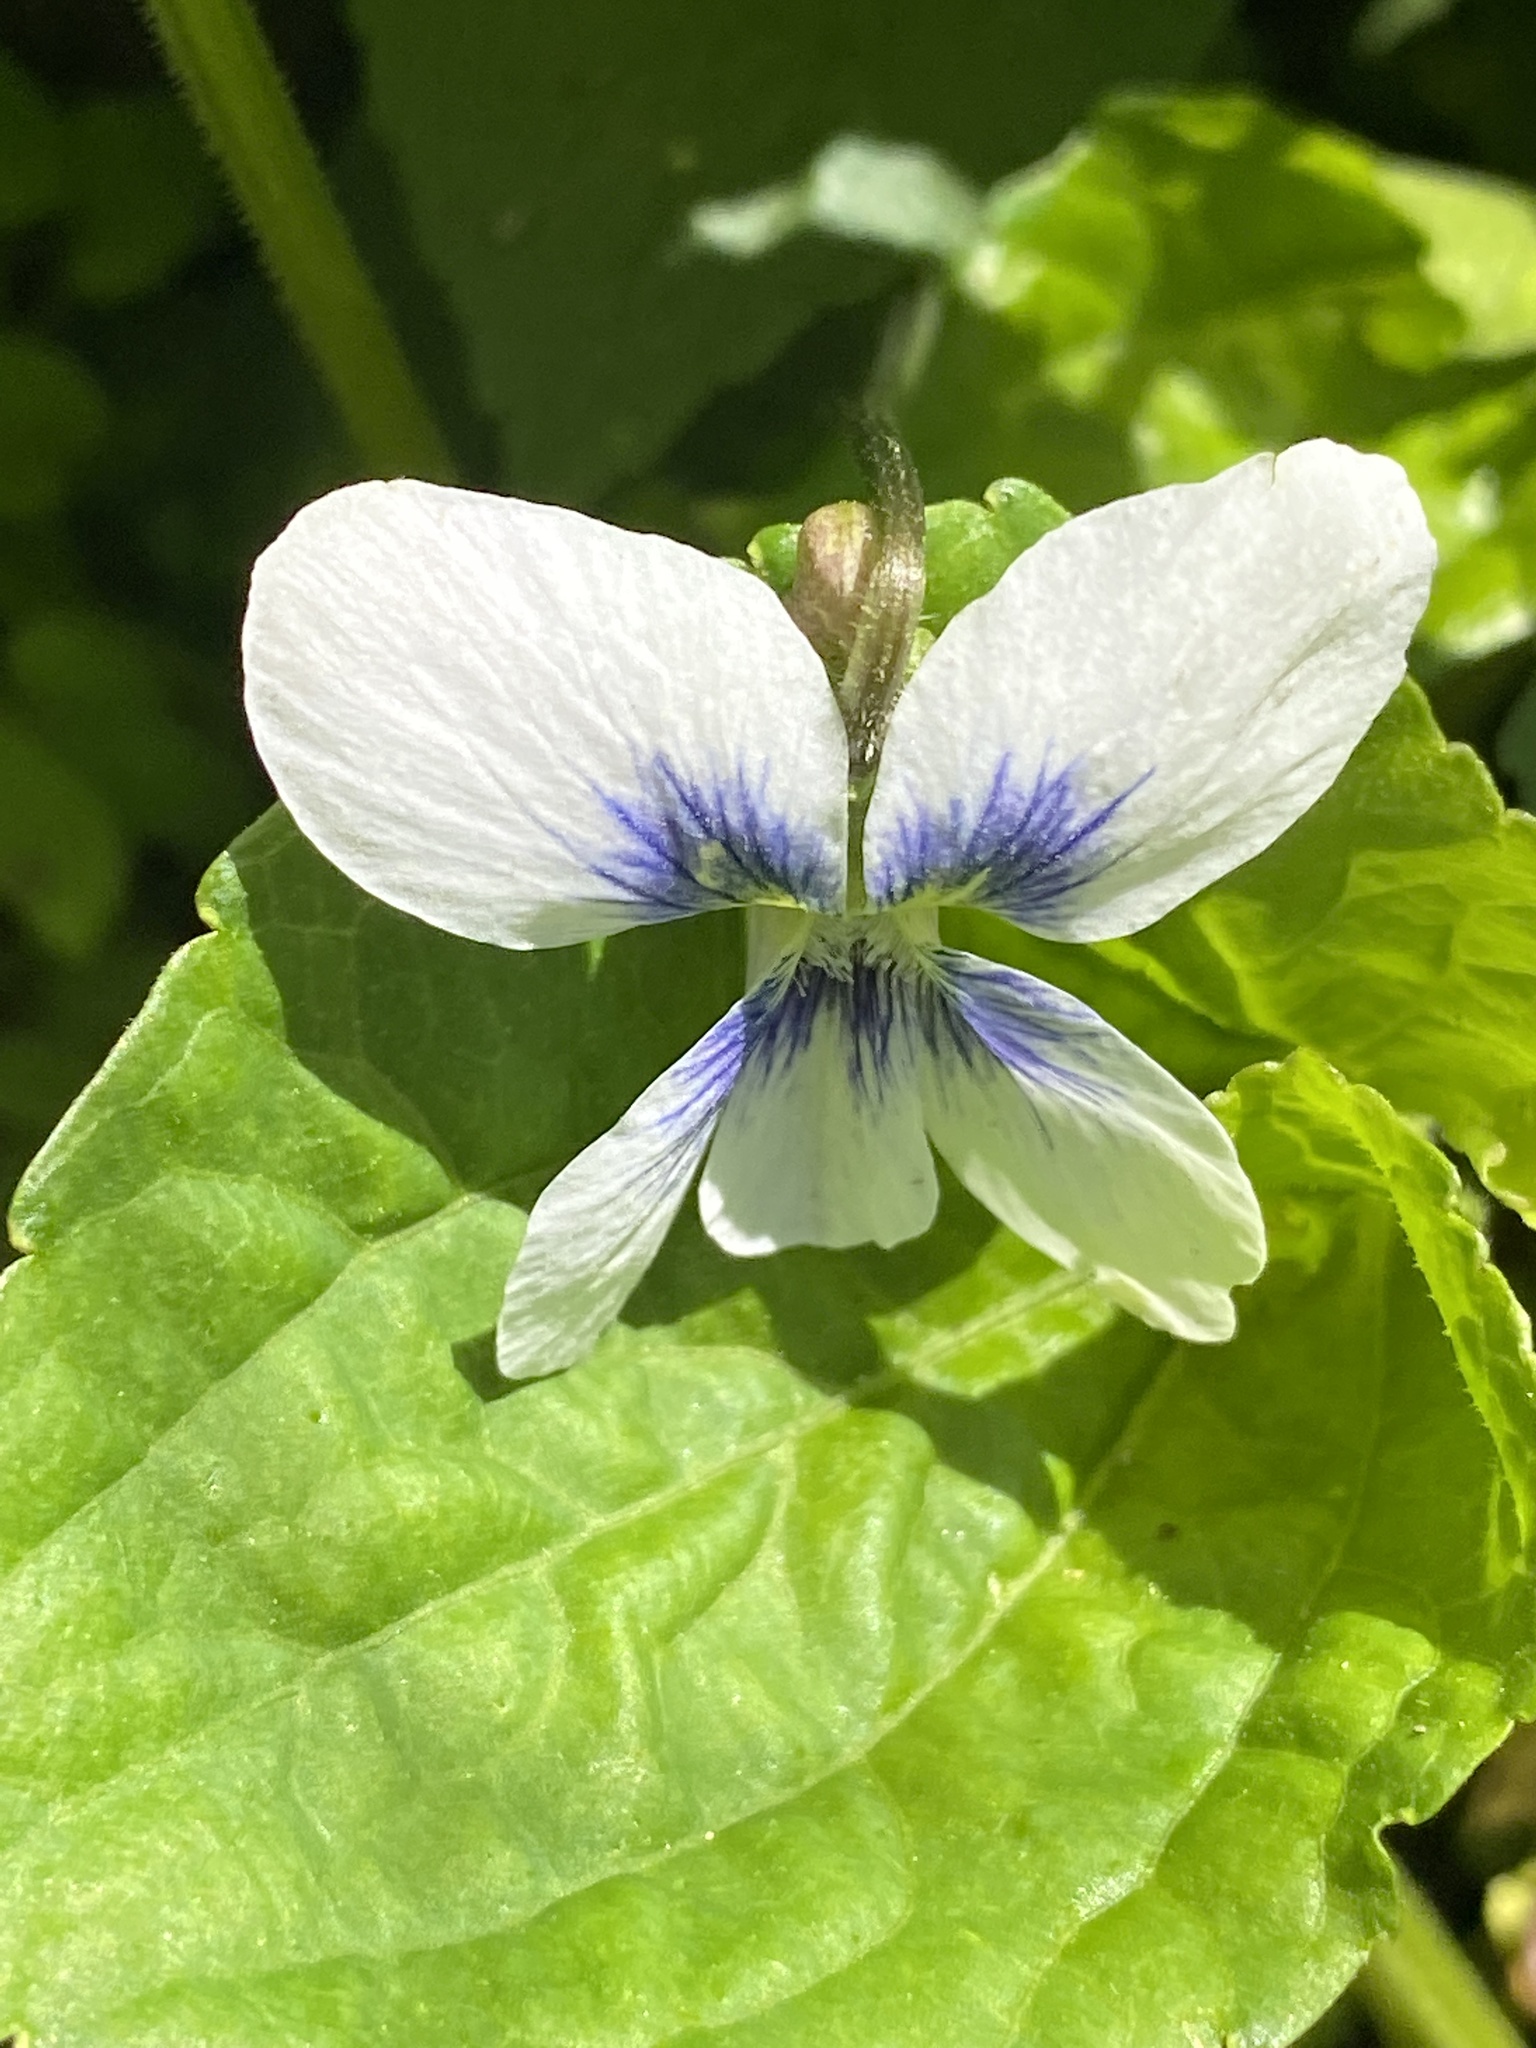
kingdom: Plantae
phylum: Tracheophyta
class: Magnoliopsida
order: Malpighiales
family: Violaceae
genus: Viola
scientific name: Viola sororia
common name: Dooryard violet
